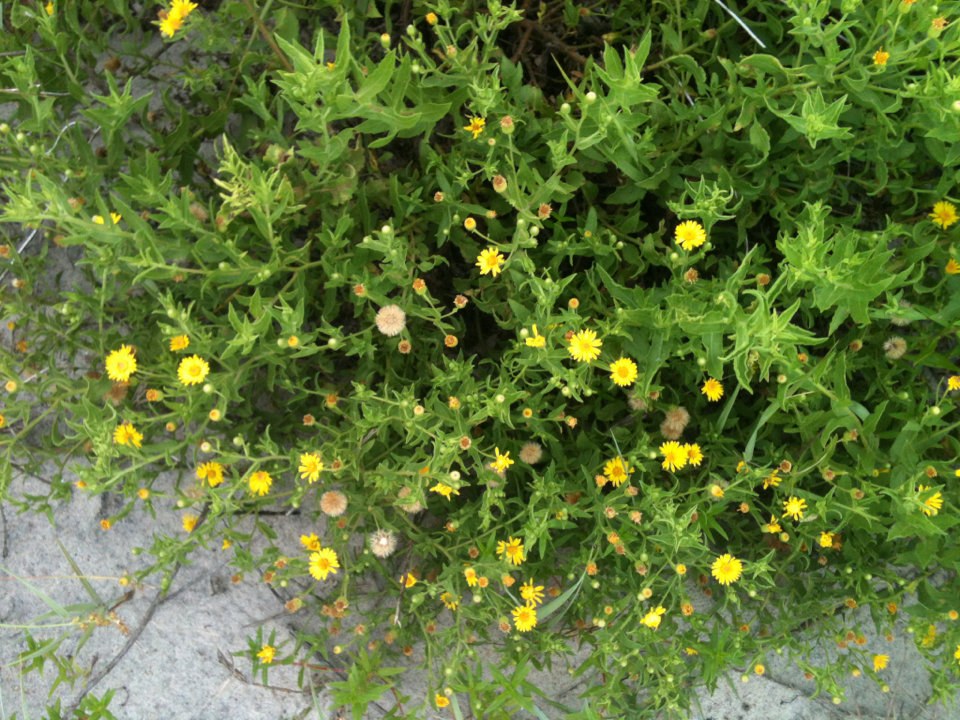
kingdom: Plantae
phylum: Tracheophyta
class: Magnoliopsida
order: Asterales
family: Asteraceae
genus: Heterotheca
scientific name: Heterotheca subaxillaris
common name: Camphorweed
